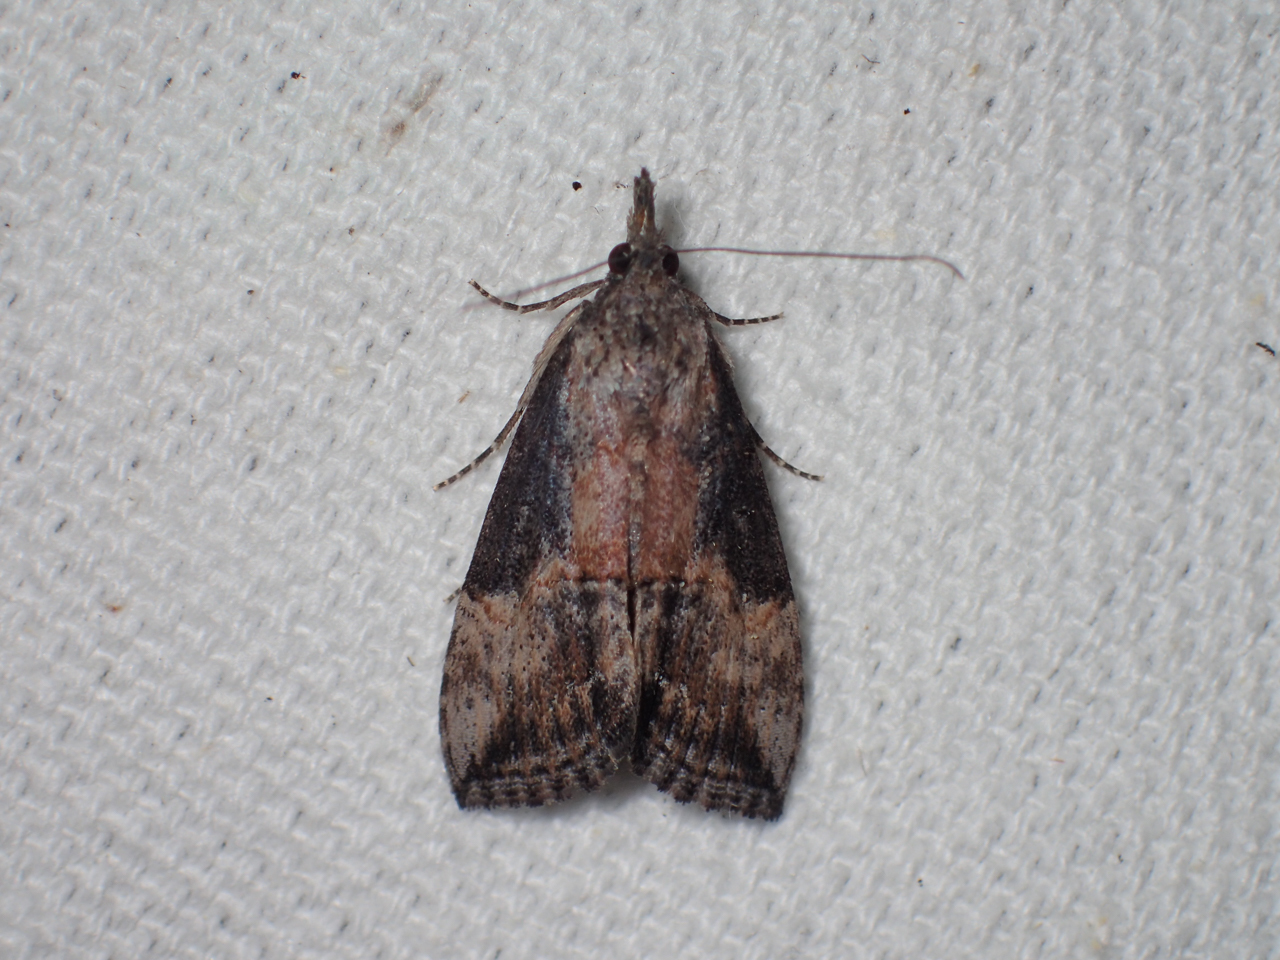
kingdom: Animalia
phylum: Arthropoda
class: Insecta
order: Lepidoptera
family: Erebidae
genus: Hypena
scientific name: Hypena scabra
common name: Green cloverworm
